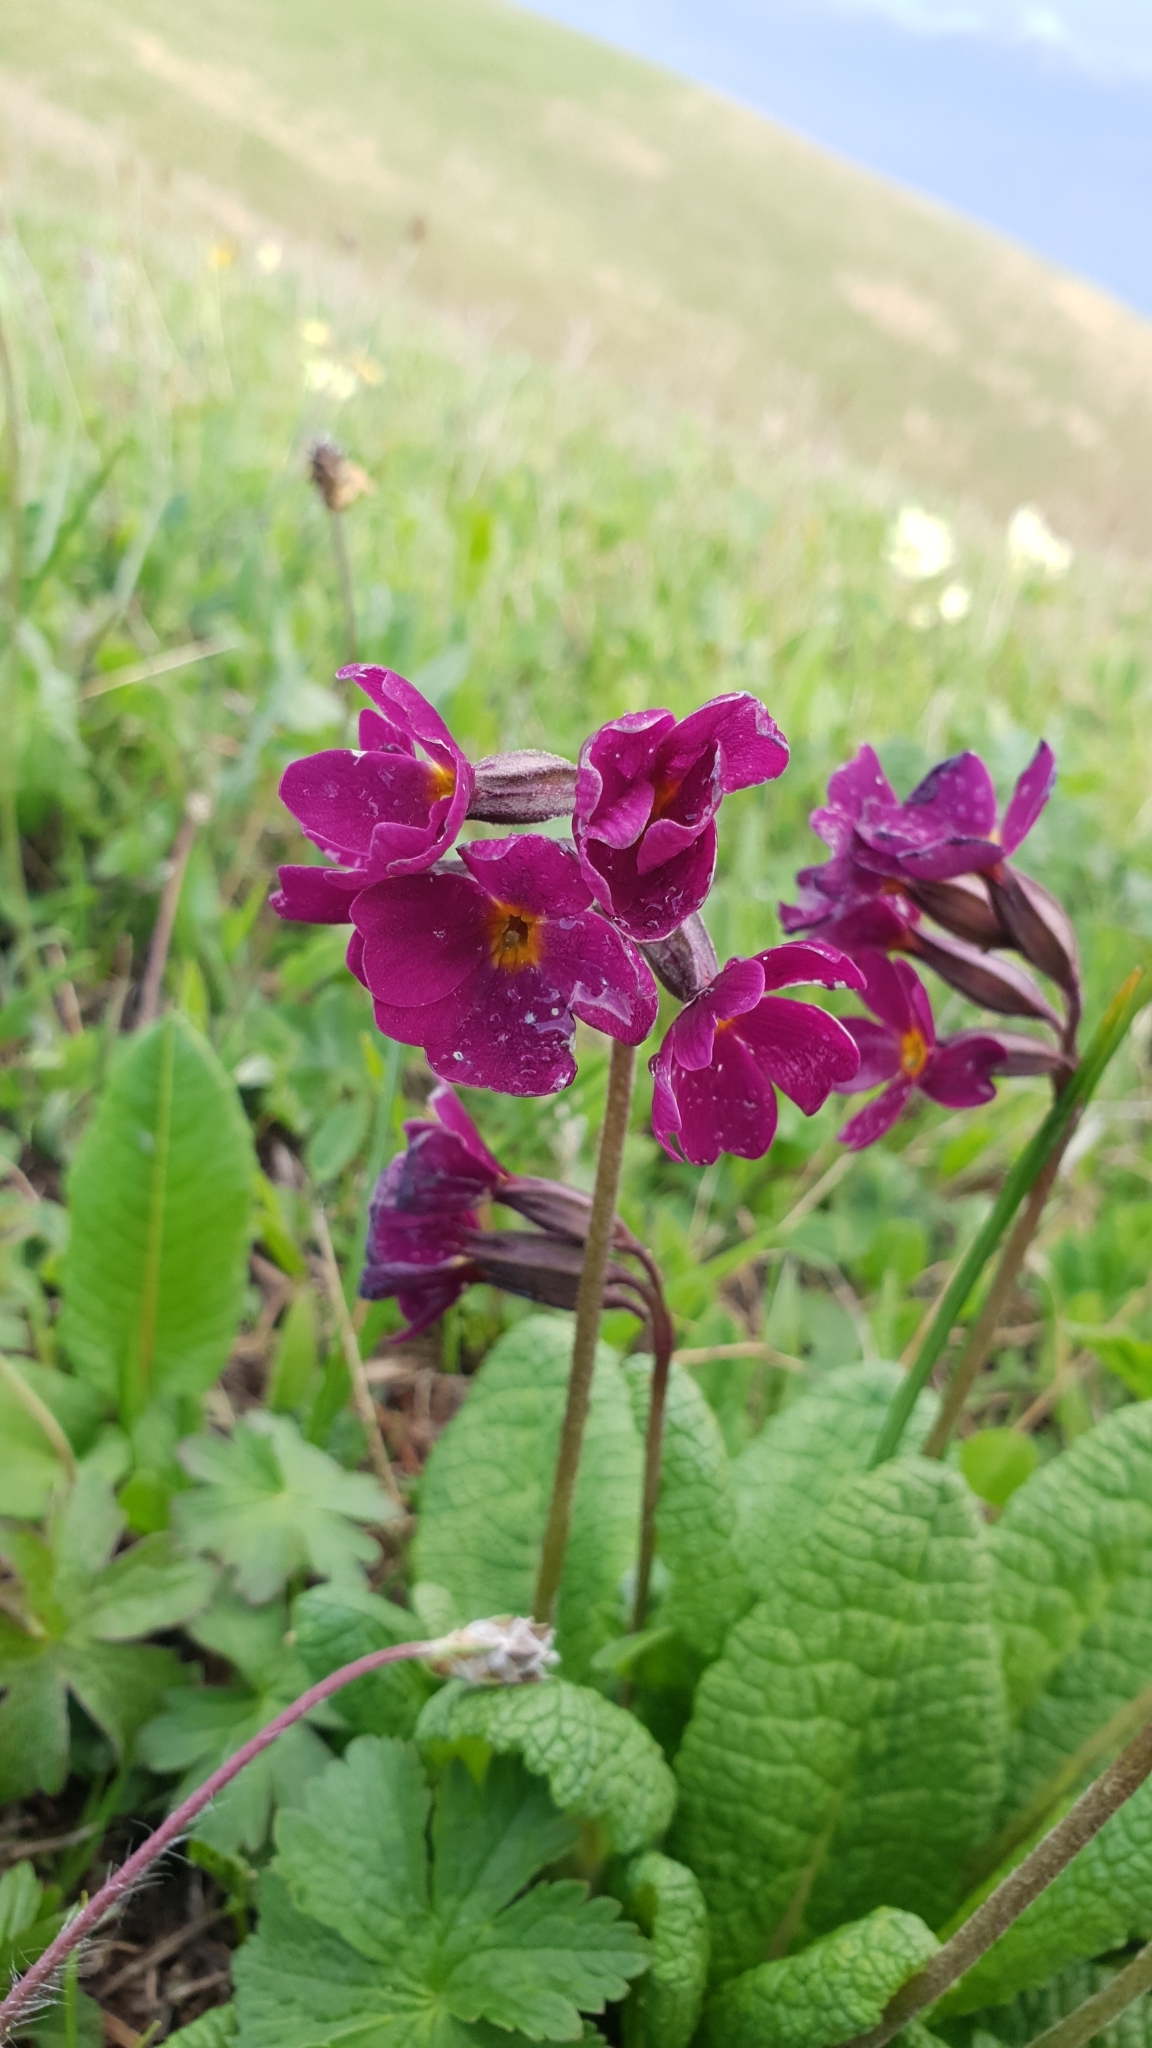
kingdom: Plantae
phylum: Tracheophyta
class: Magnoliopsida
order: Ericales
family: Primulaceae
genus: Primula
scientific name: Primula amoena
